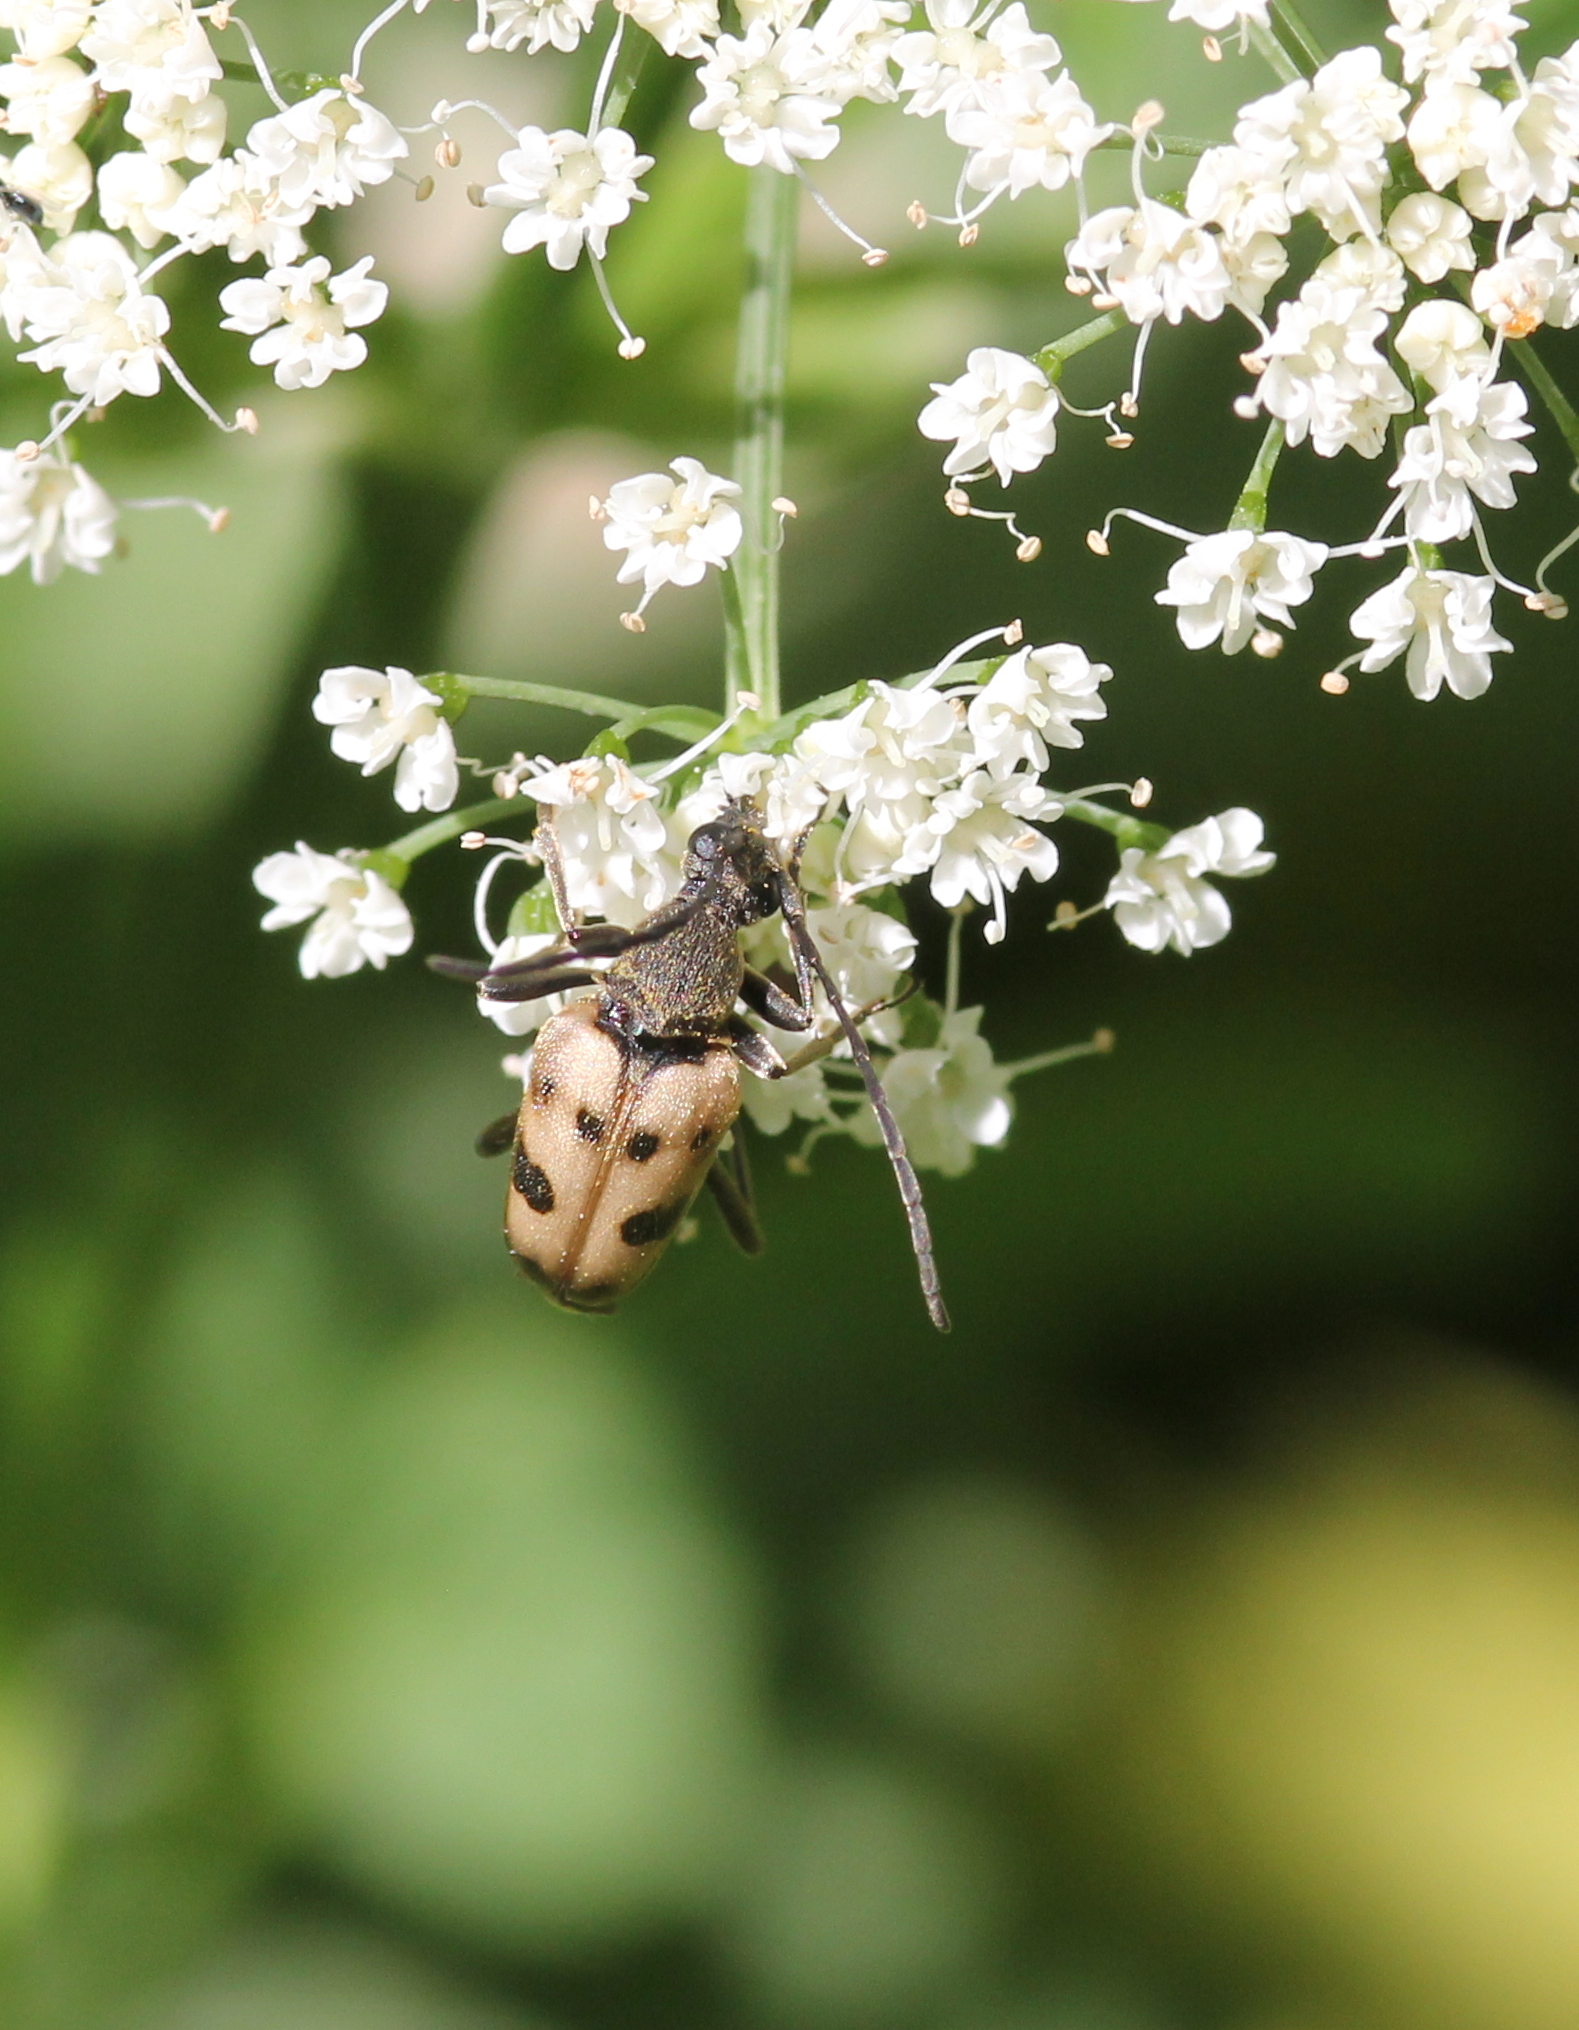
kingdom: Animalia
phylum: Arthropoda
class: Insecta
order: Coleoptera
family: Cerambycidae
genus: Pachytodes
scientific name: Pachytodes cerambyciformis
